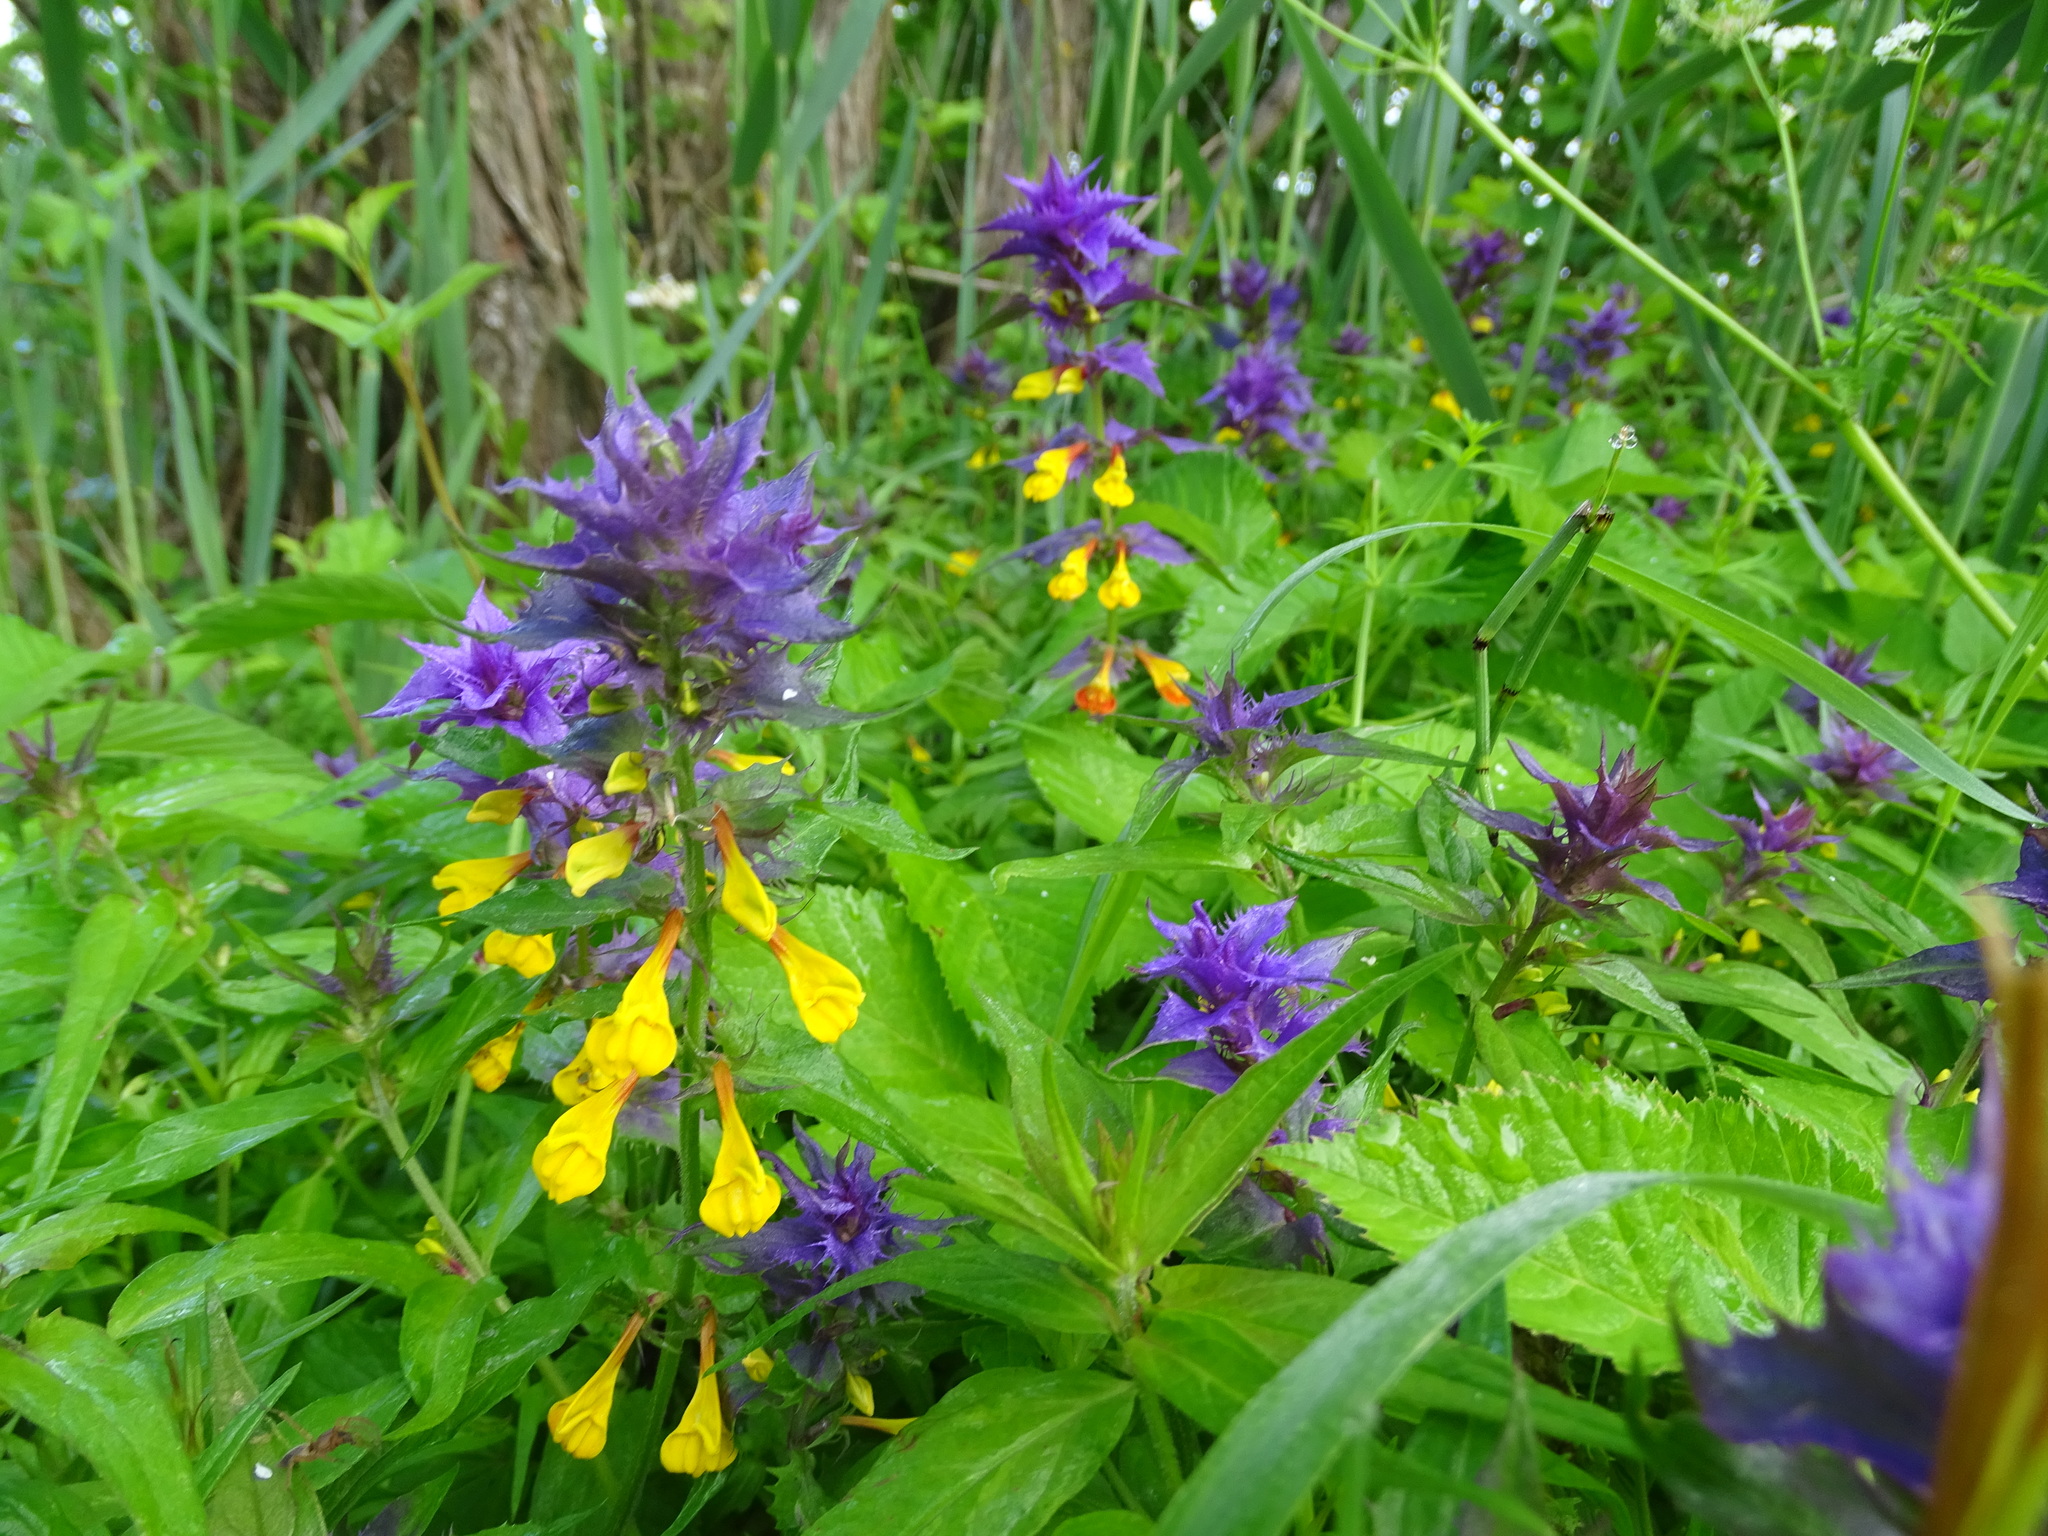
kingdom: Plantae
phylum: Tracheophyta
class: Magnoliopsida
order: Lamiales
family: Orobanchaceae
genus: Melampyrum
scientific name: Melampyrum nemorosum
